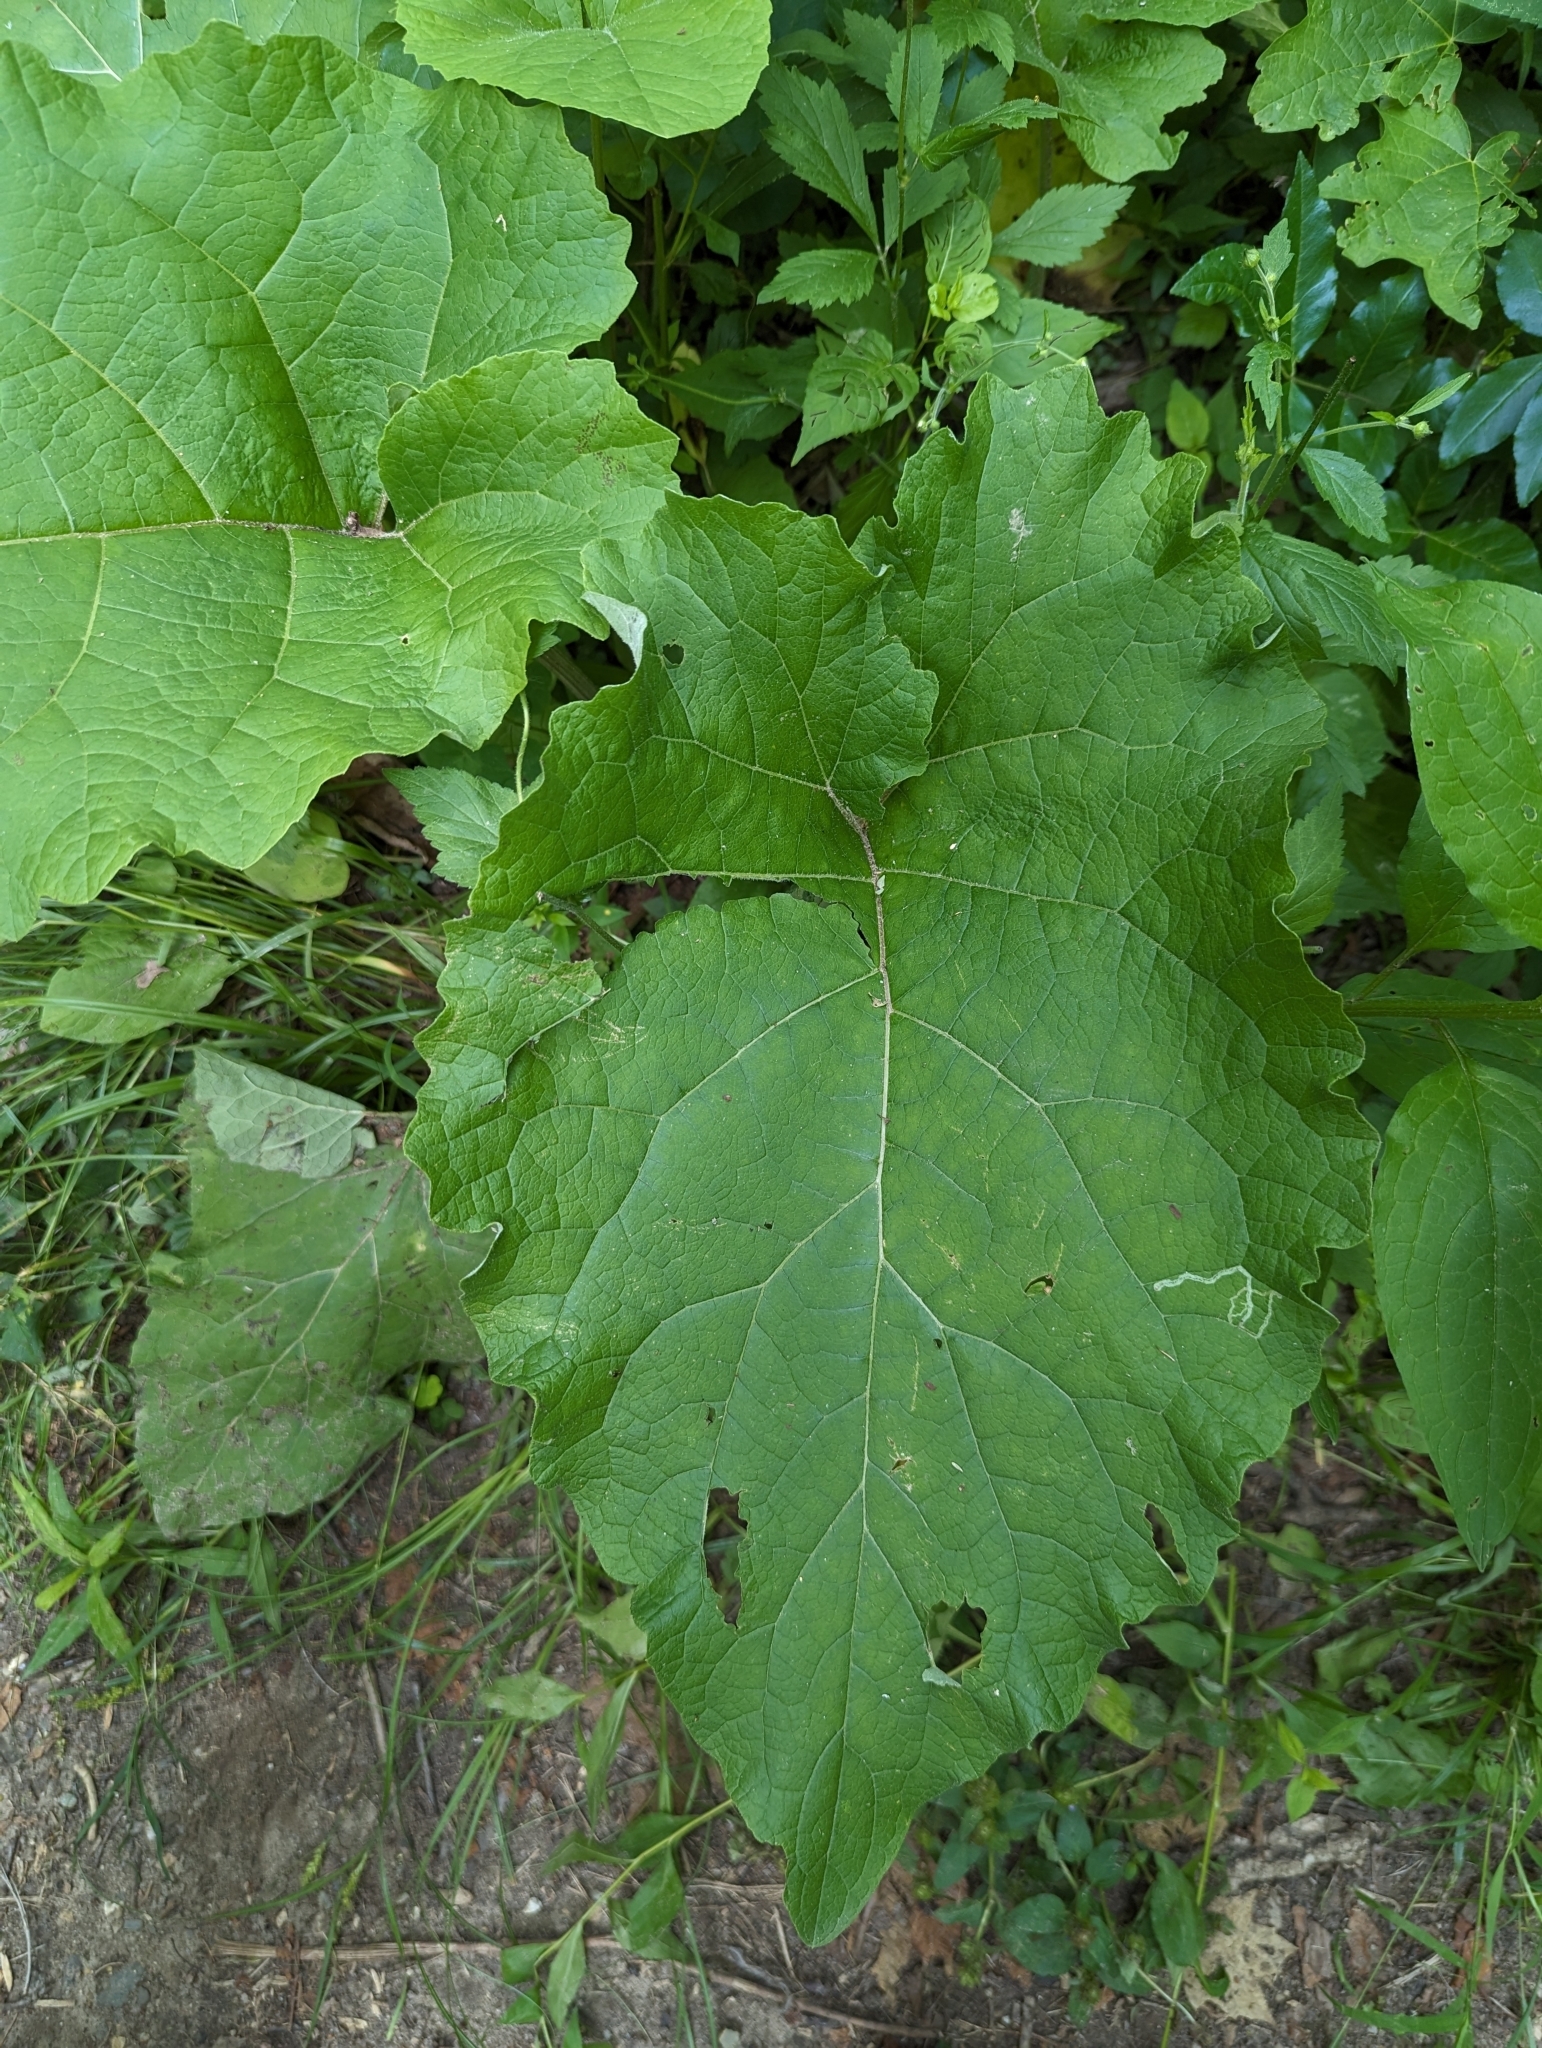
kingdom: Plantae
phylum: Tracheophyta
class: Magnoliopsida
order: Asterales
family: Asteraceae
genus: Arctium
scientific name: Arctium
